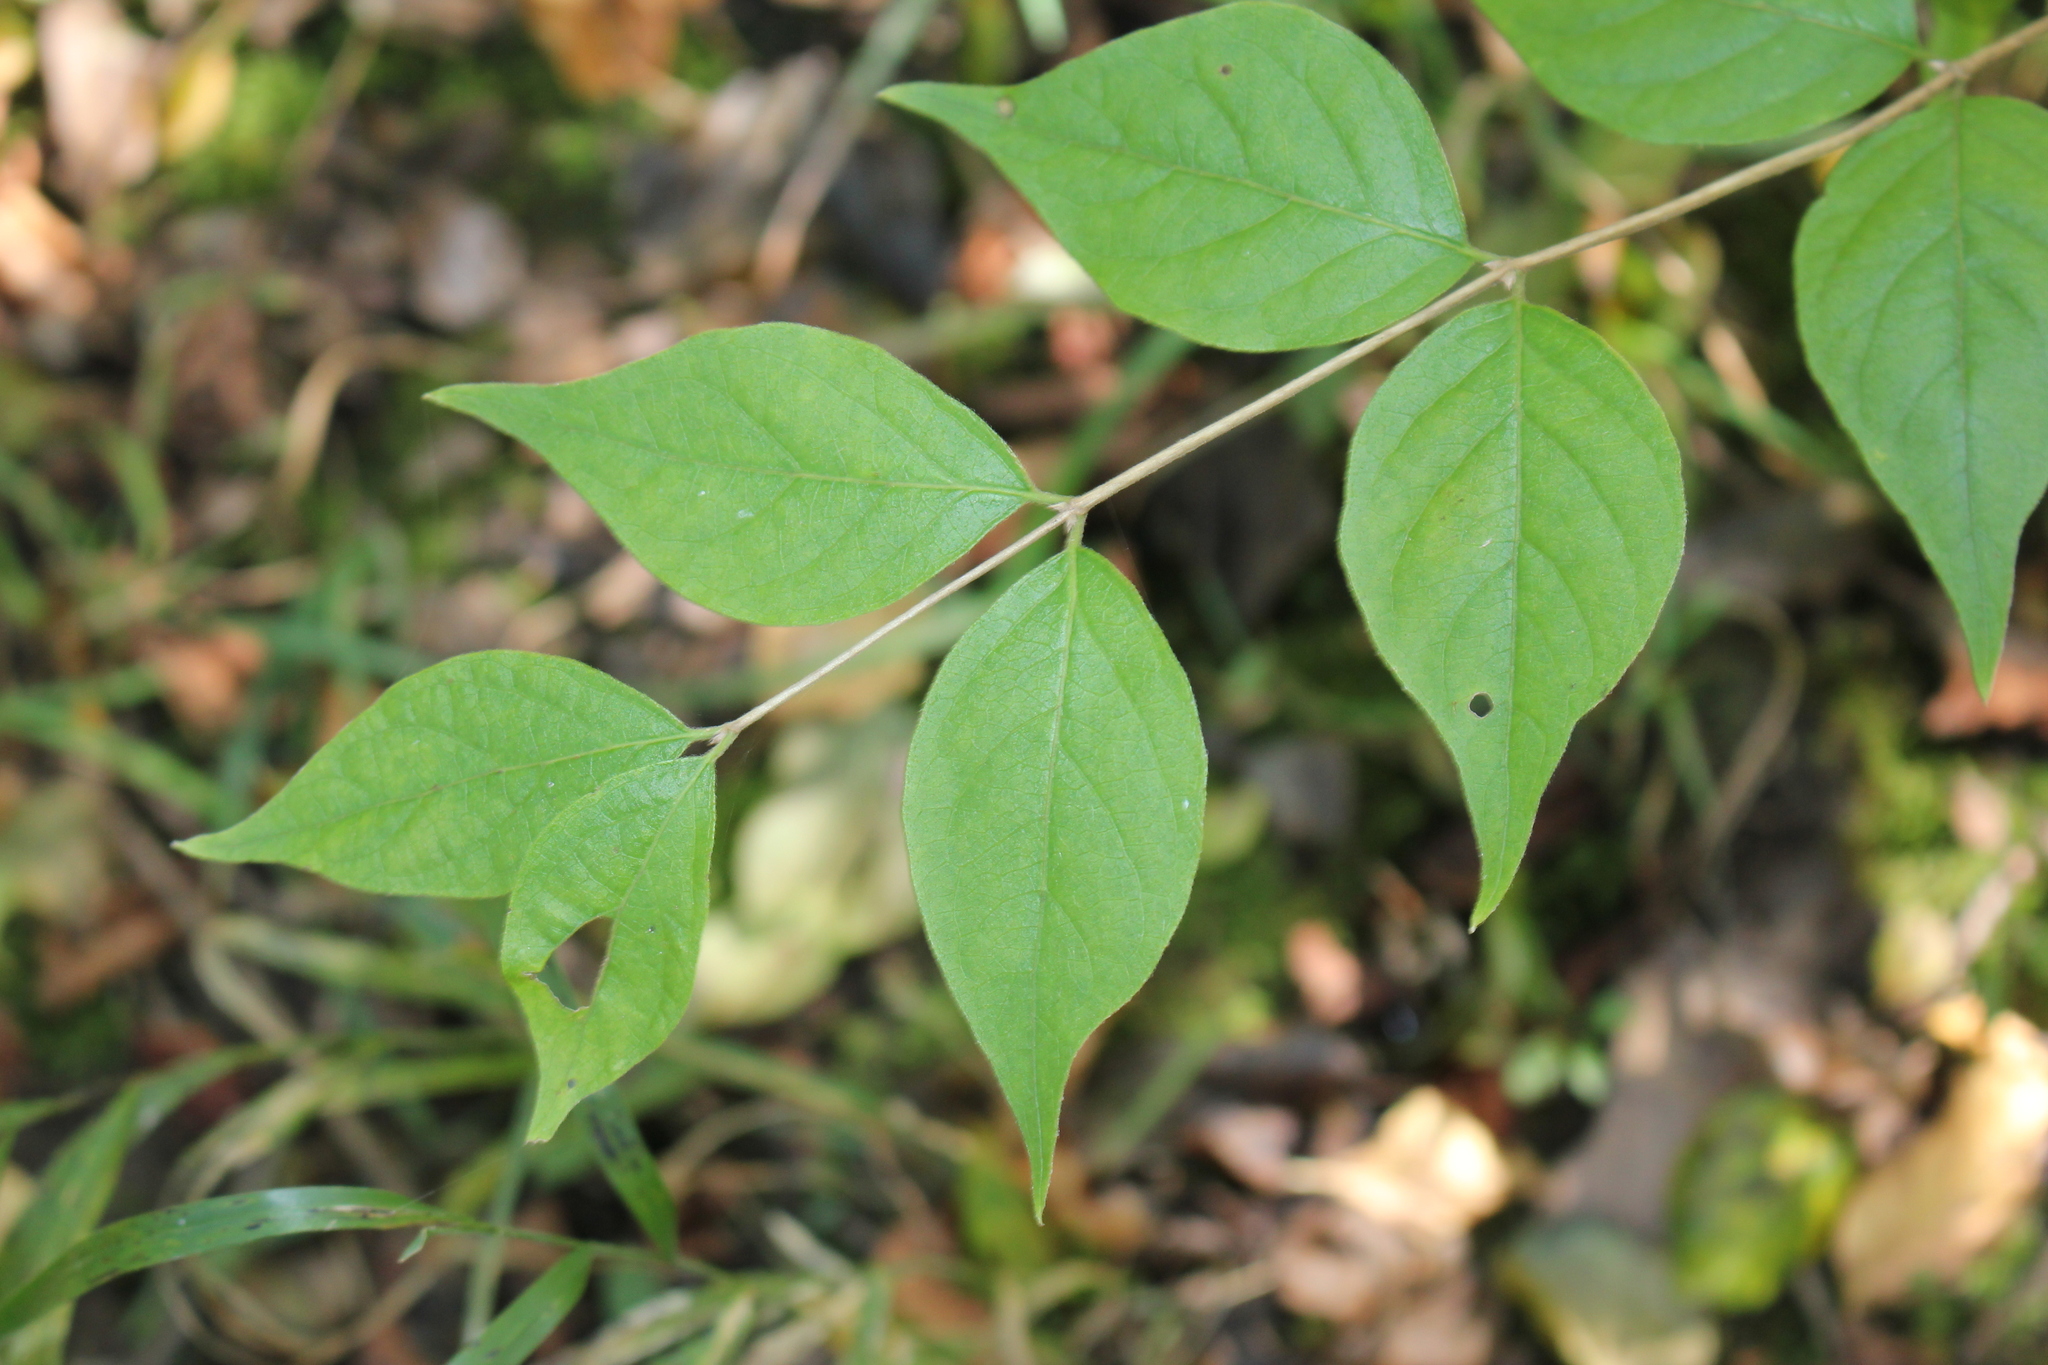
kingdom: Plantae
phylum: Tracheophyta
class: Magnoliopsida
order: Dipsacales
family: Caprifoliaceae
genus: Lonicera
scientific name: Lonicera maackii
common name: Amur honeysuckle
